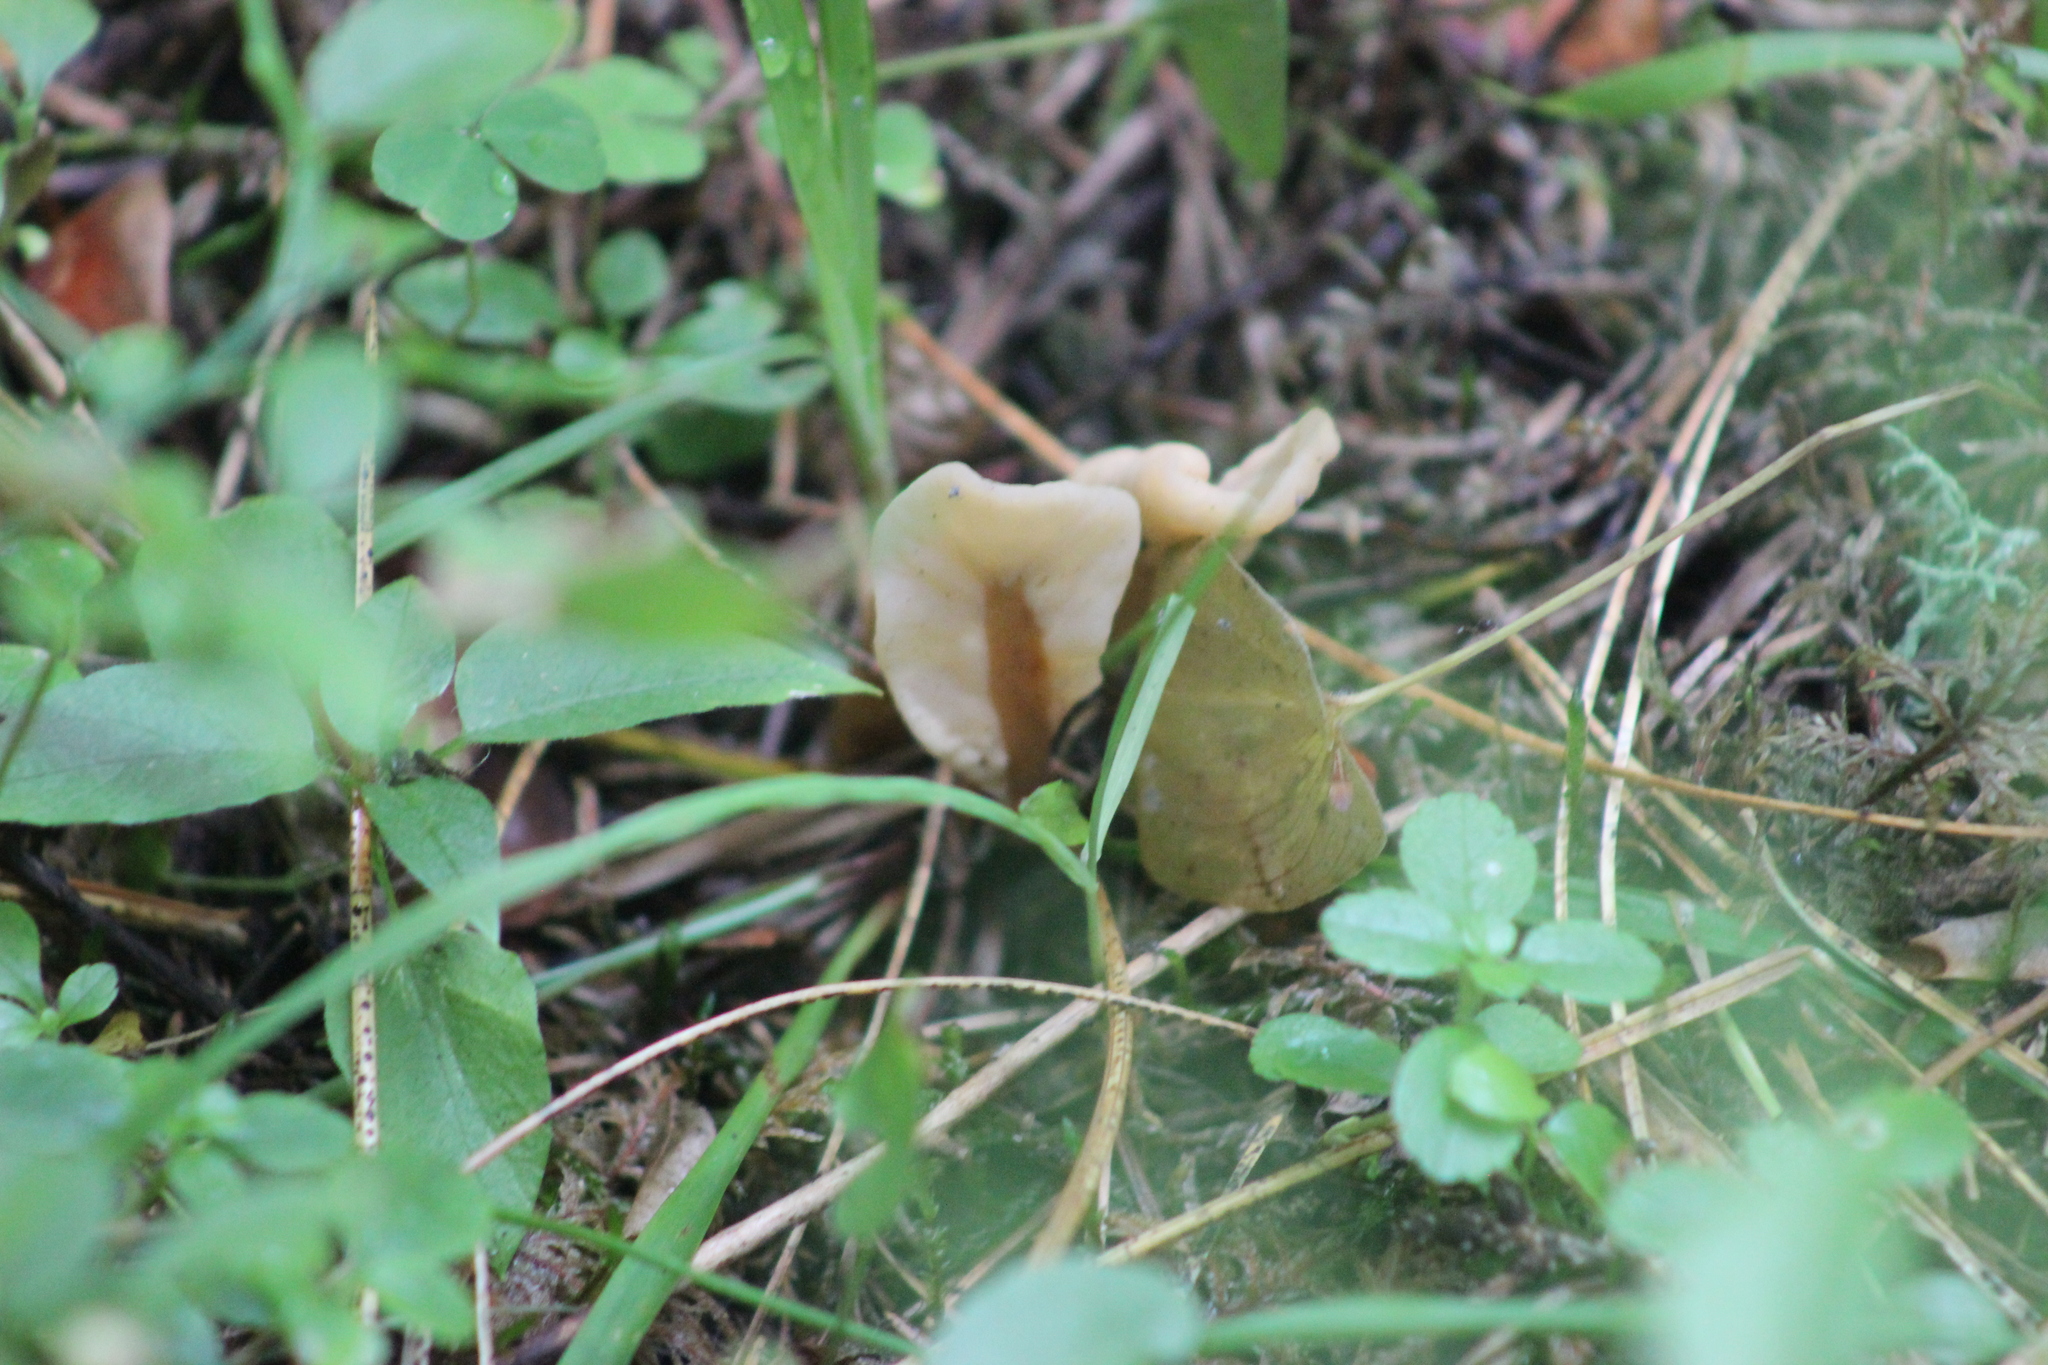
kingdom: Fungi
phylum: Ascomycota
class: Leotiomycetes
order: Rhytismatales
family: Cudoniaceae
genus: Spathularia
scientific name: Spathularia rufa
